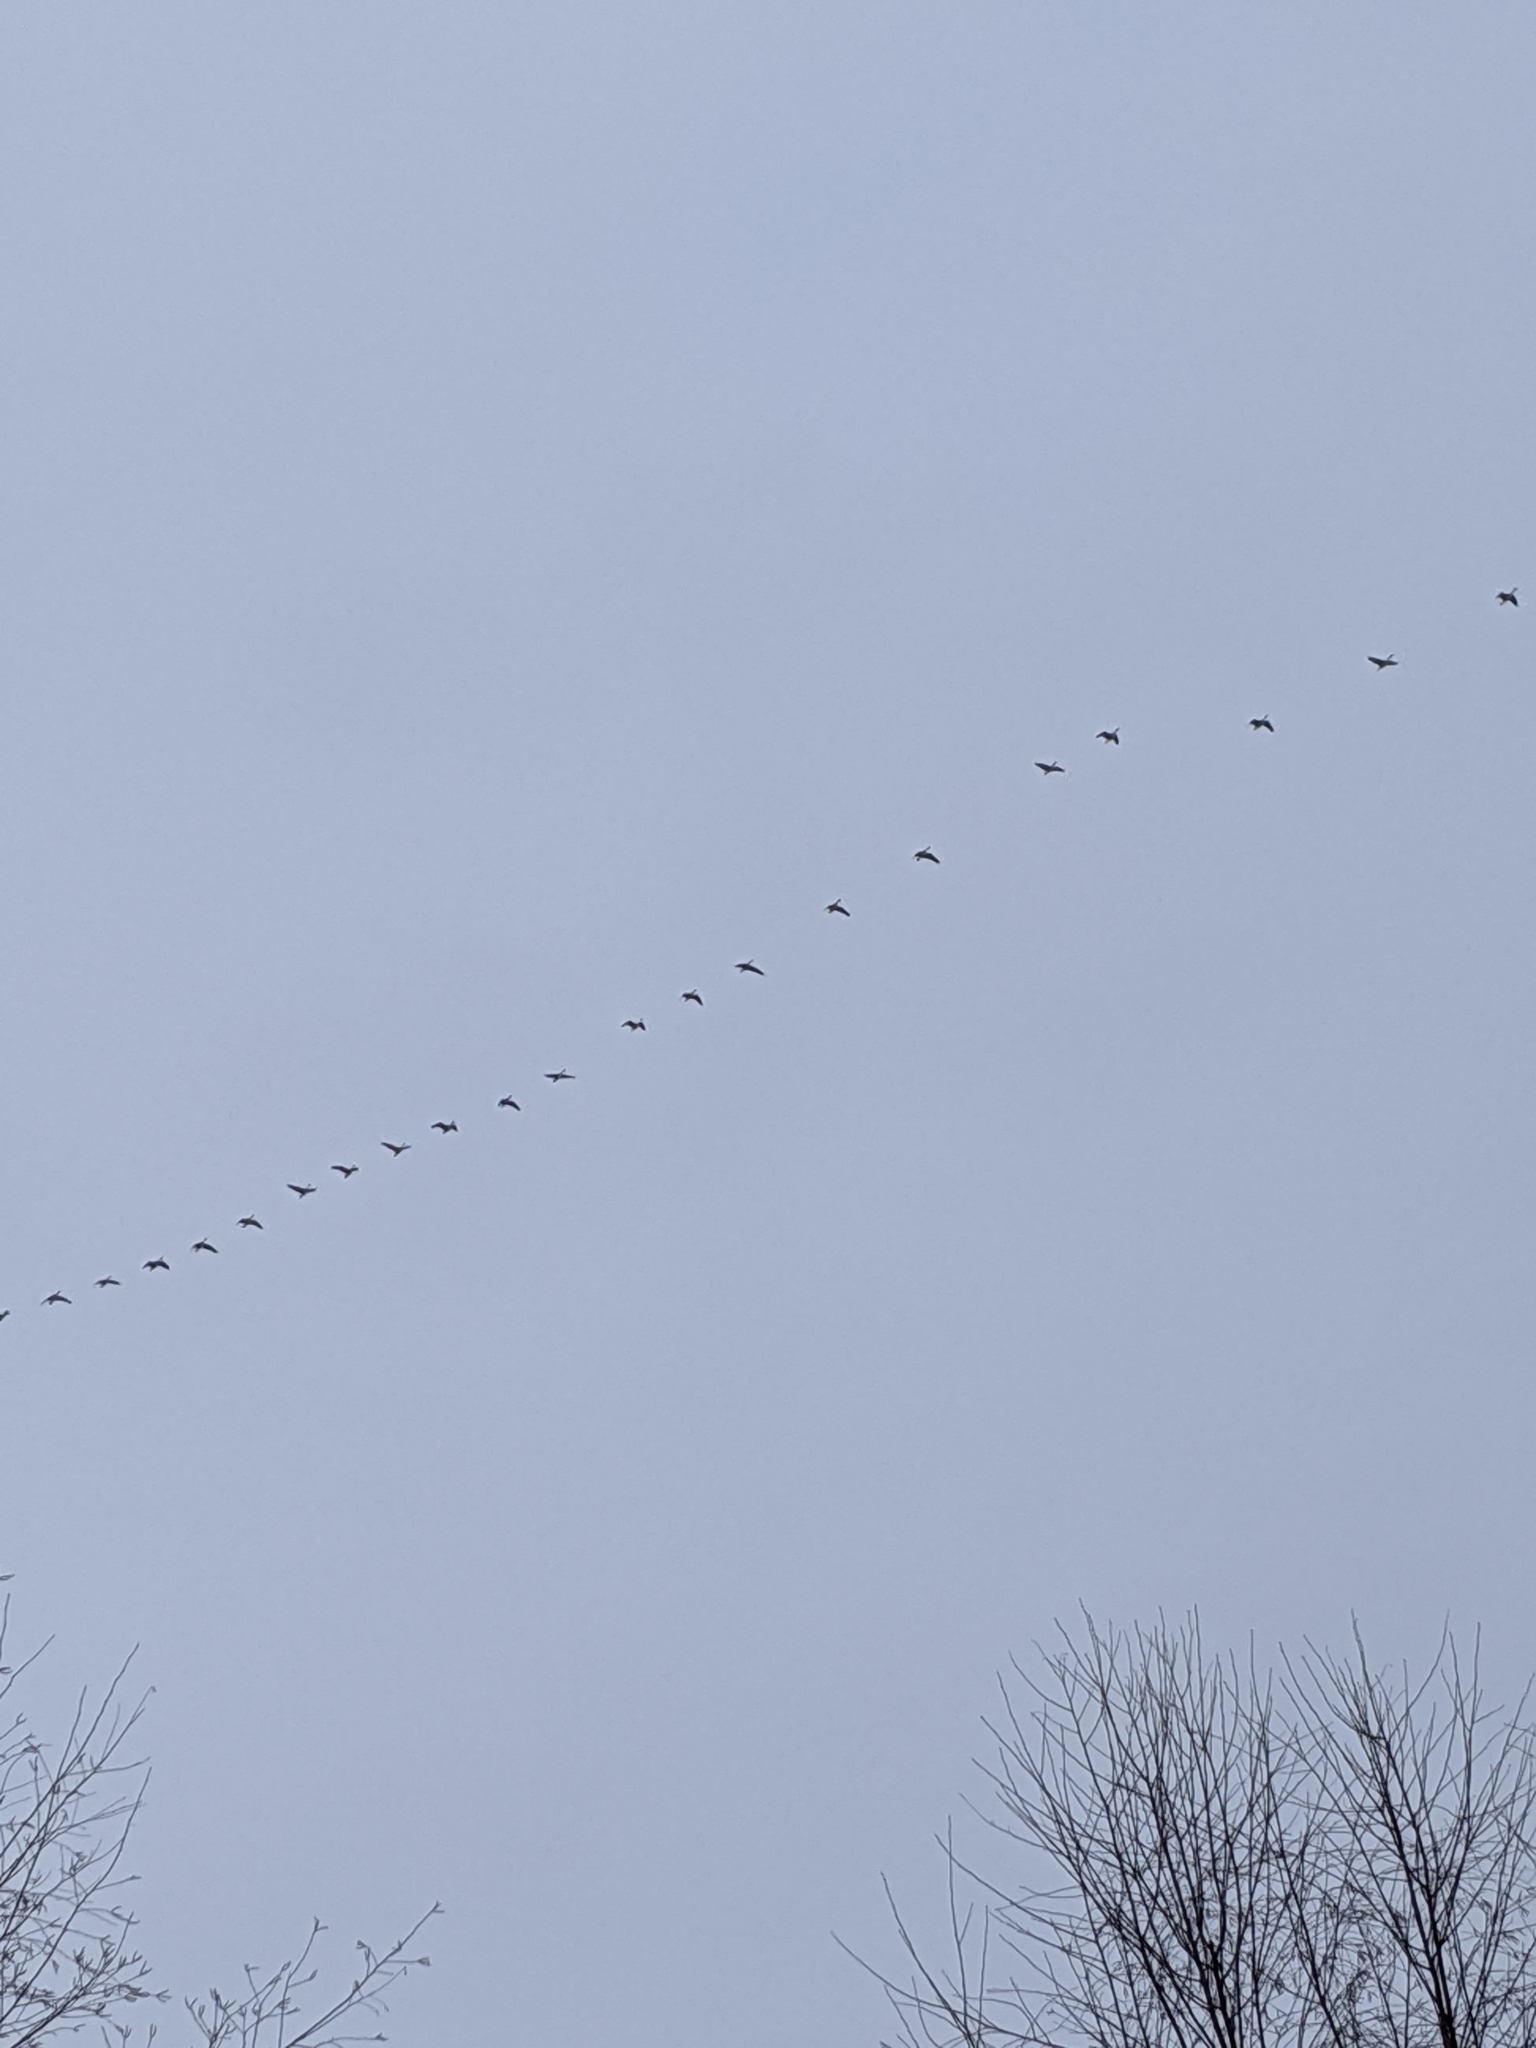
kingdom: Animalia
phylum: Chordata
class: Aves
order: Anseriformes
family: Anatidae
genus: Branta
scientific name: Branta canadensis
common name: Canada goose
